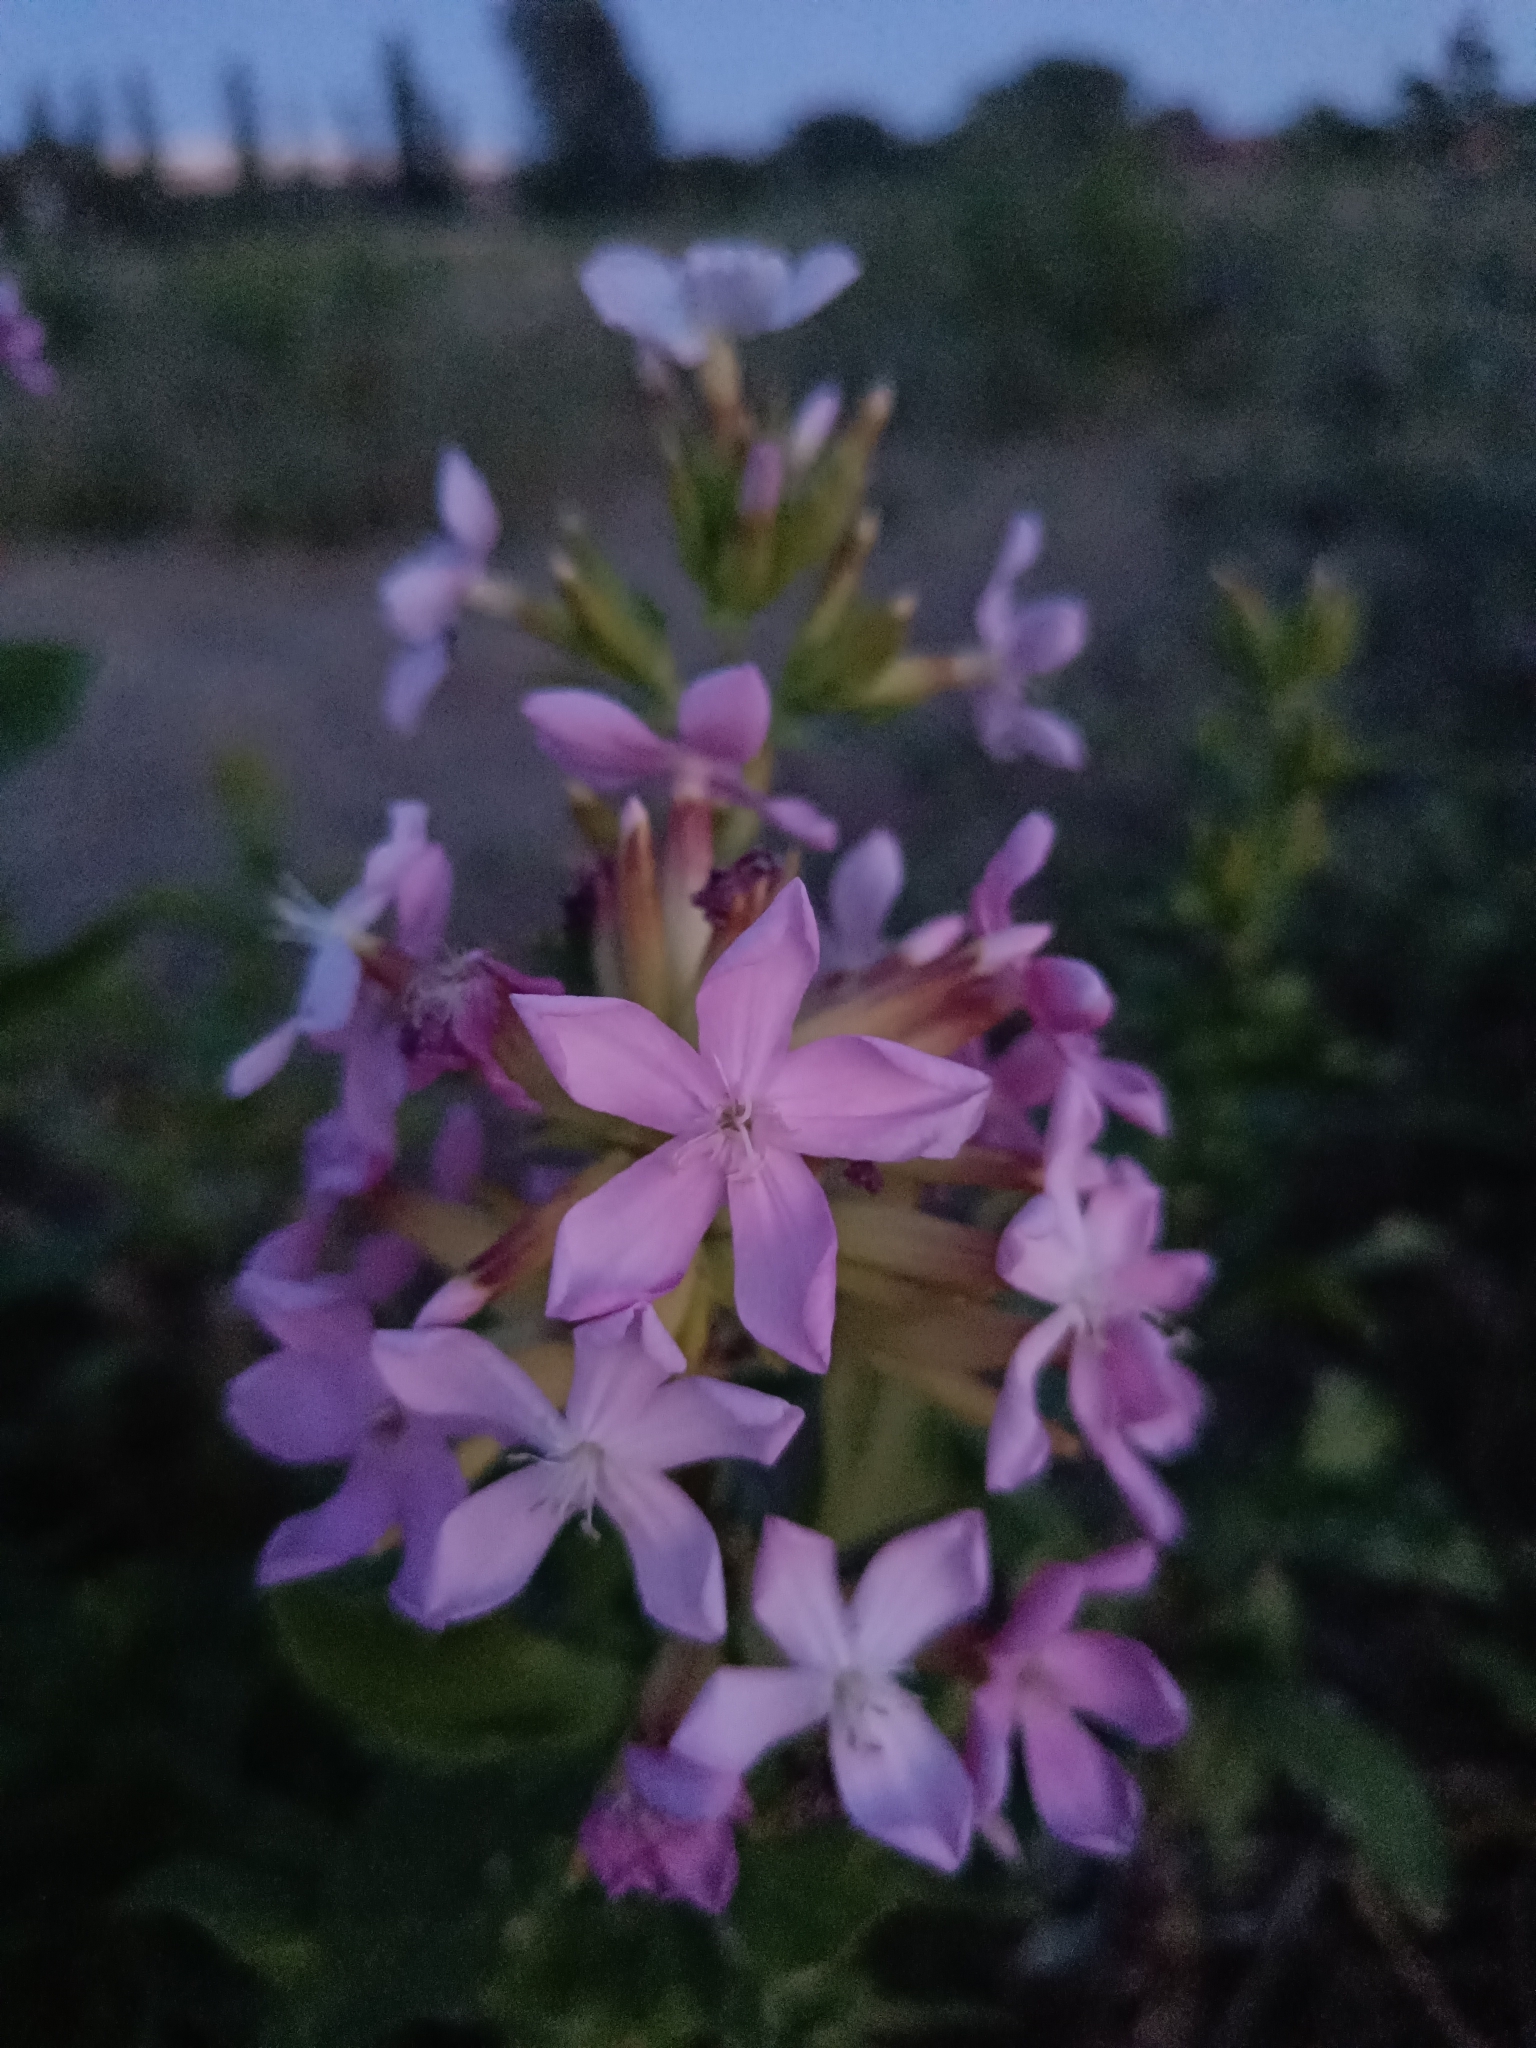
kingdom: Plantae
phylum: Tracheophyta
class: Magnoliopsida
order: Caryophyllales
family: Caryophyllaceae
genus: Saponaria
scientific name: Saponaria officinalis
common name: Soapwort
